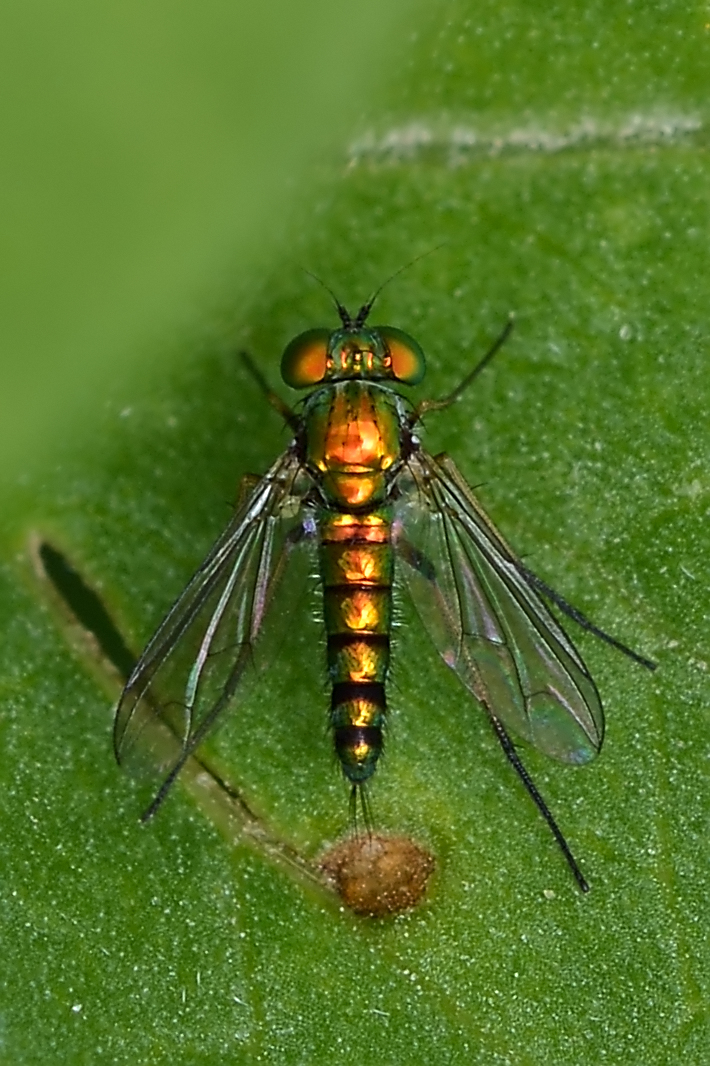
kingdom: Animalia
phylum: Arthropoda
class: Insecta
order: Diptera
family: Dolichopodidae
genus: Condylostylus
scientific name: Condylostylus caudatus
